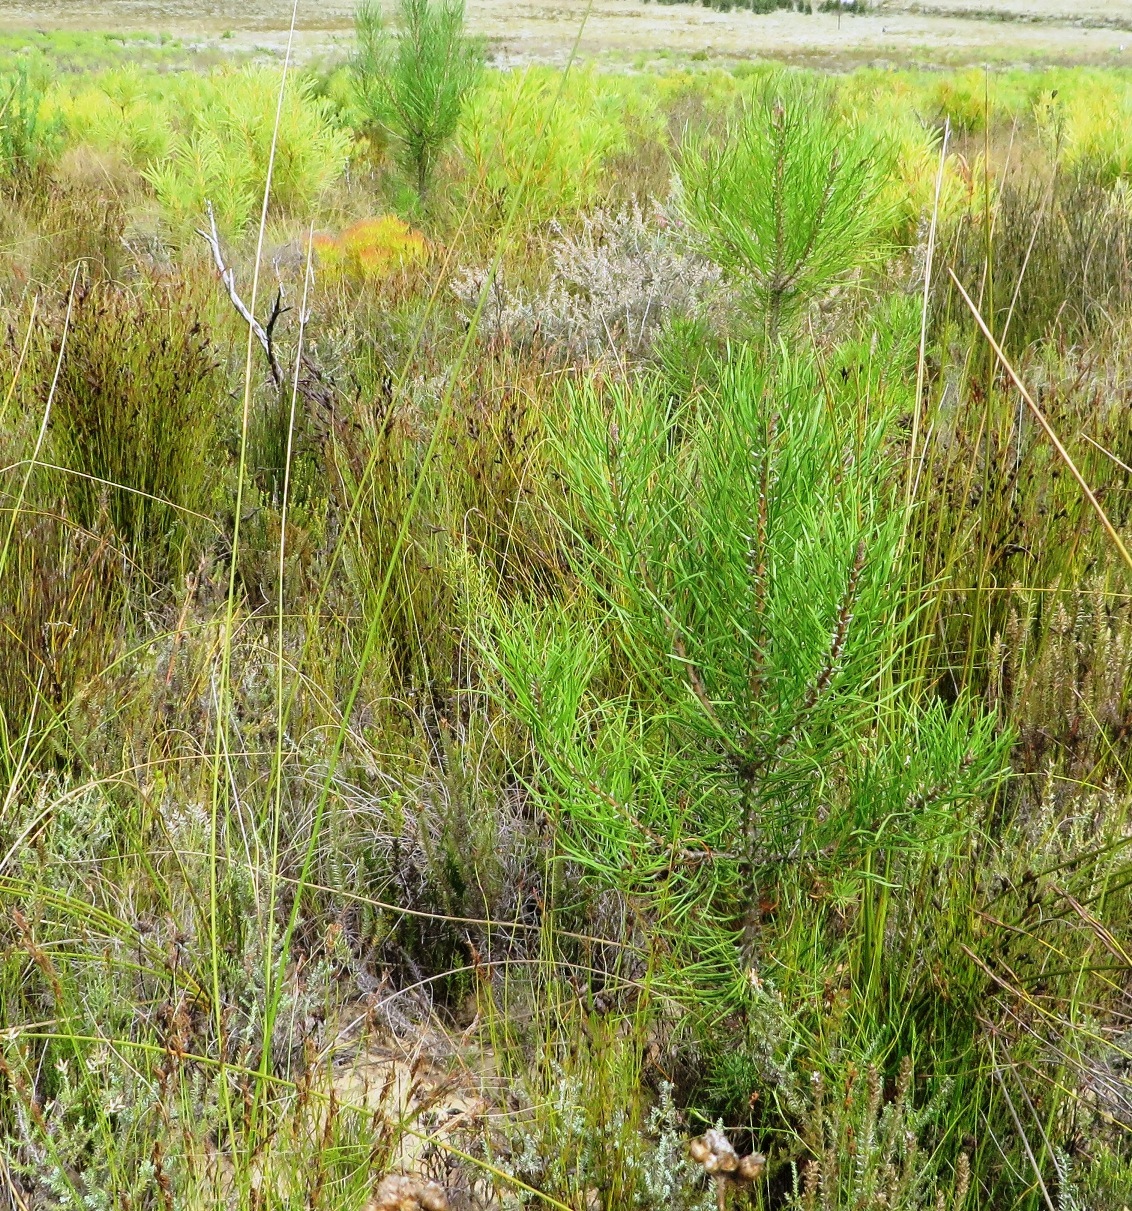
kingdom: Plantae
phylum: Tracheophyta
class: Pinopsida
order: Pinales
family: Pinaceae
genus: Pinus
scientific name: Pinus pinaster
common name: Maritime pine
